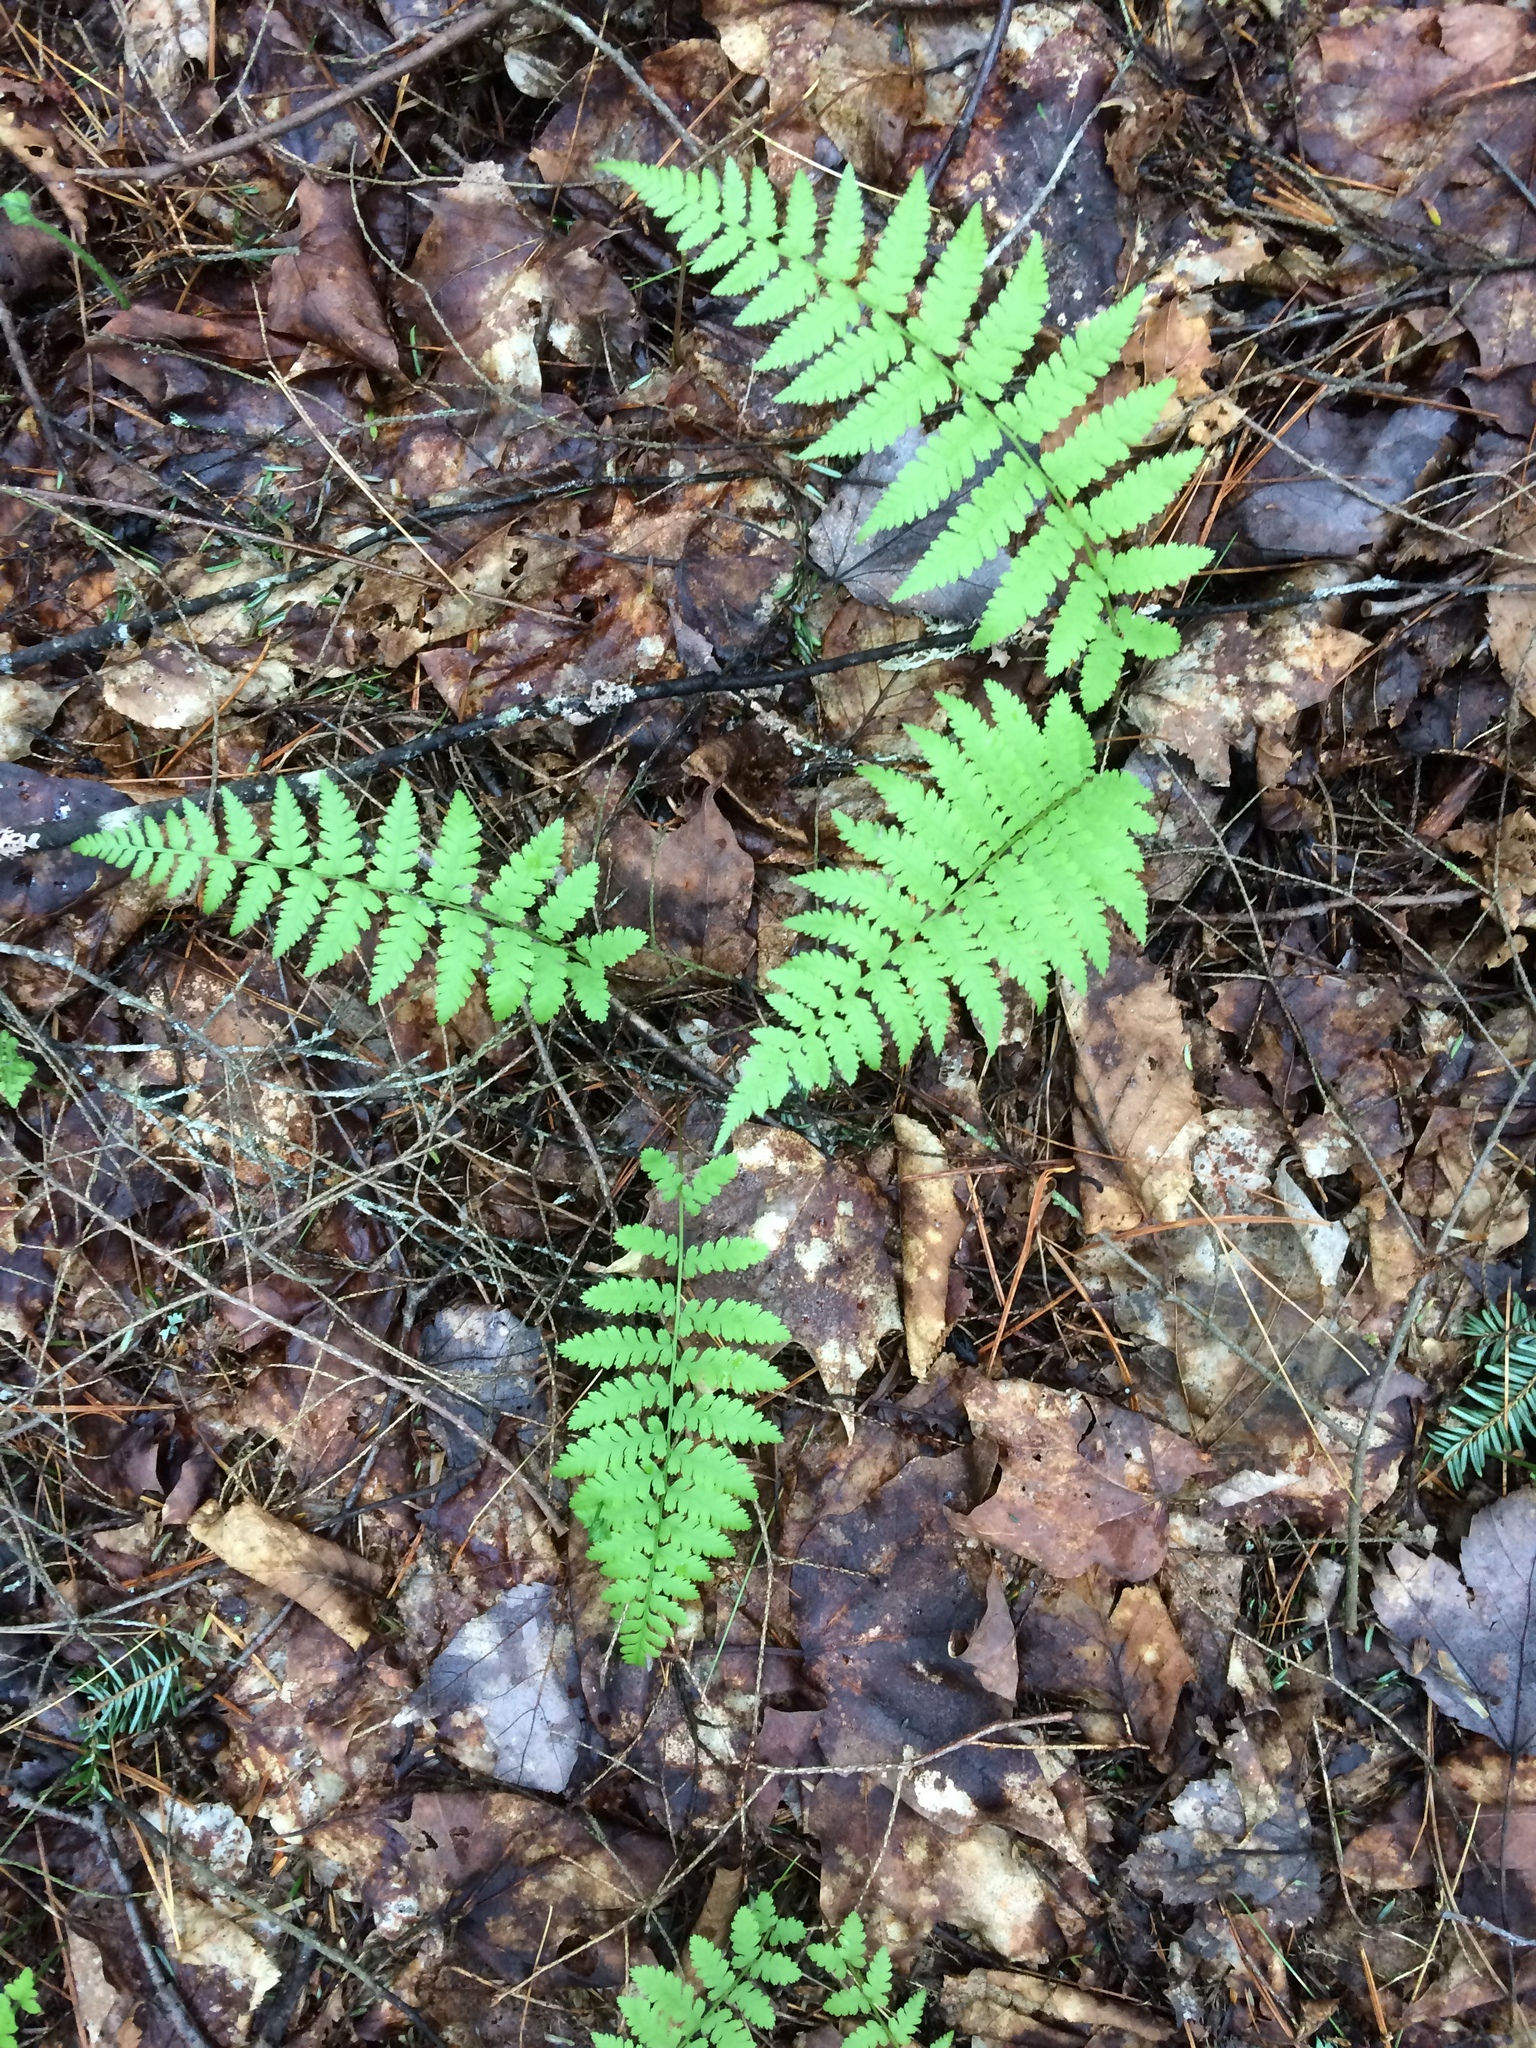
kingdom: Plantae
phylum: Tracheophyta
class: Polypodiopsida
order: Polypodiales
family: Thelypteridaceae
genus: Amauropelta
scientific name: Amauropelta noveboracensis
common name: New york fern
